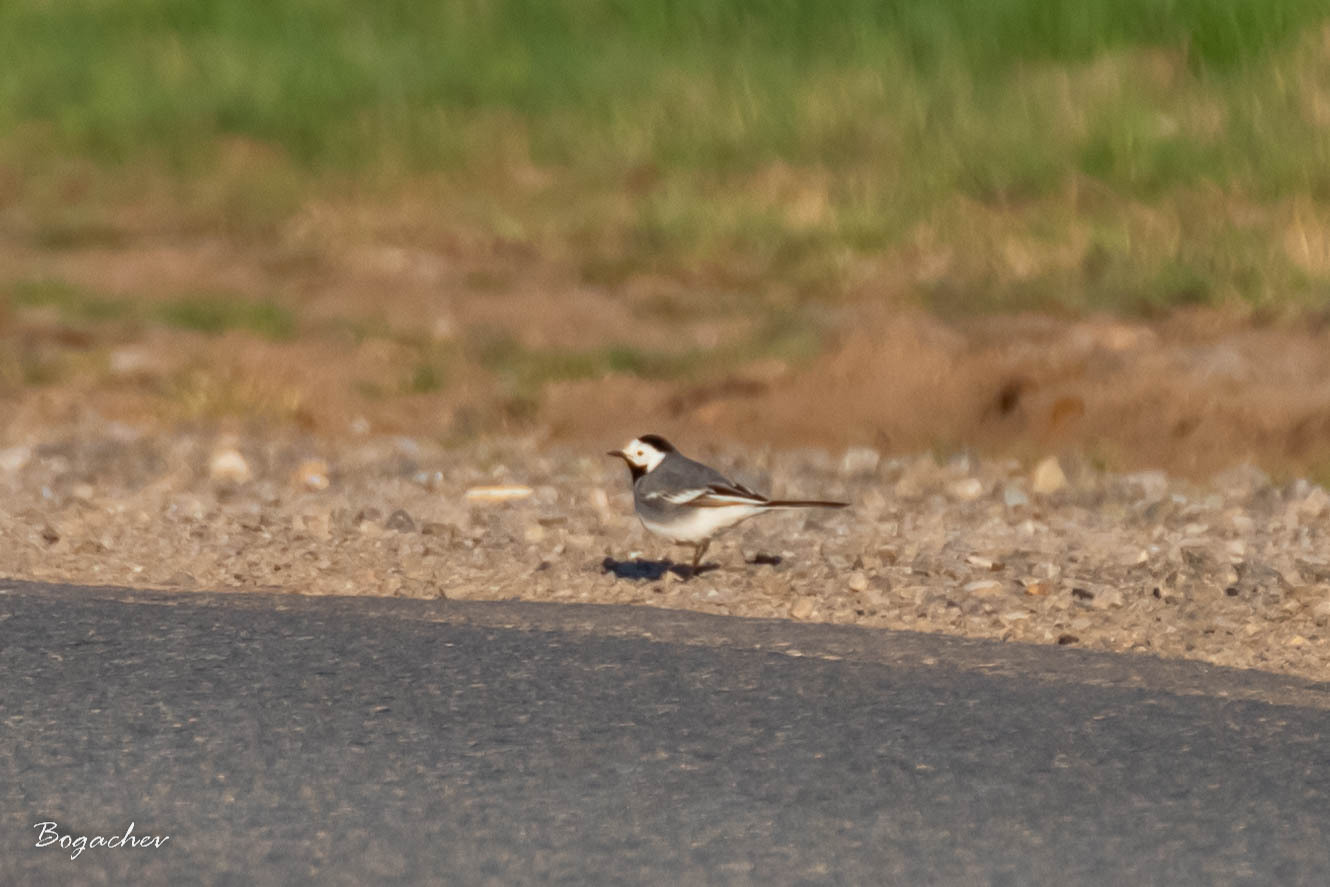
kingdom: Animalia
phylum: Chordata
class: Aves
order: Passeriformes
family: Motacillidae
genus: Motacilla
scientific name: Motacilla alba
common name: White wagtail
